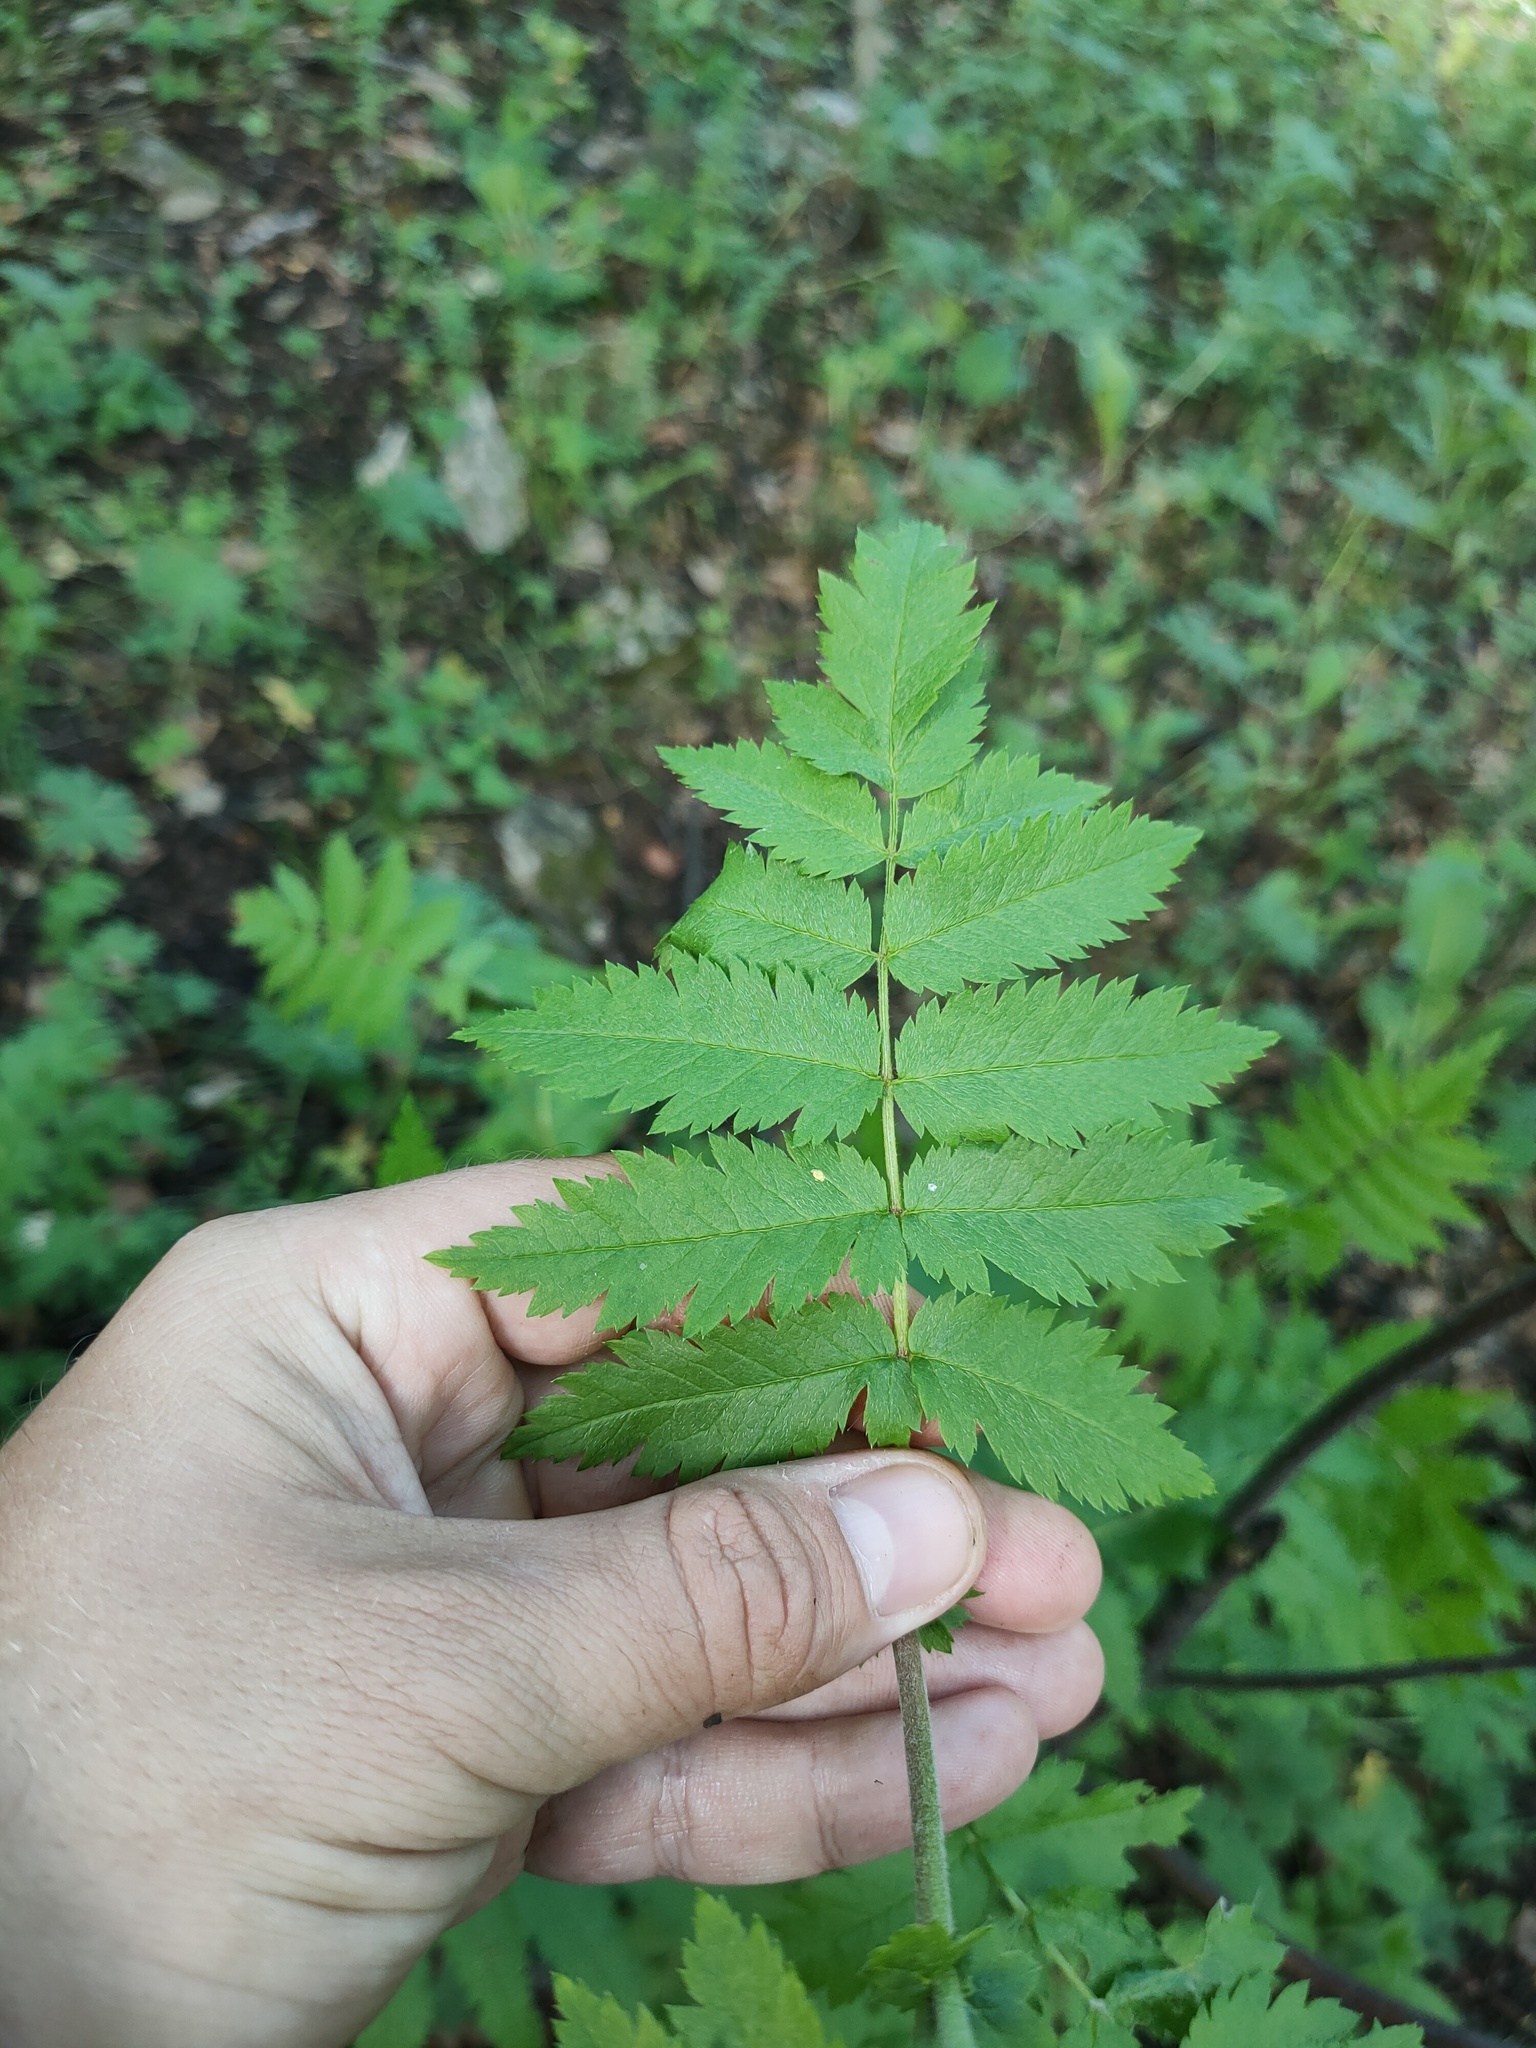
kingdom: Plantae
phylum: Tracheophyta
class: Magnoliopsida
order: Rosales
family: Rosaceae
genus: Sorbus
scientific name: Sorbus
